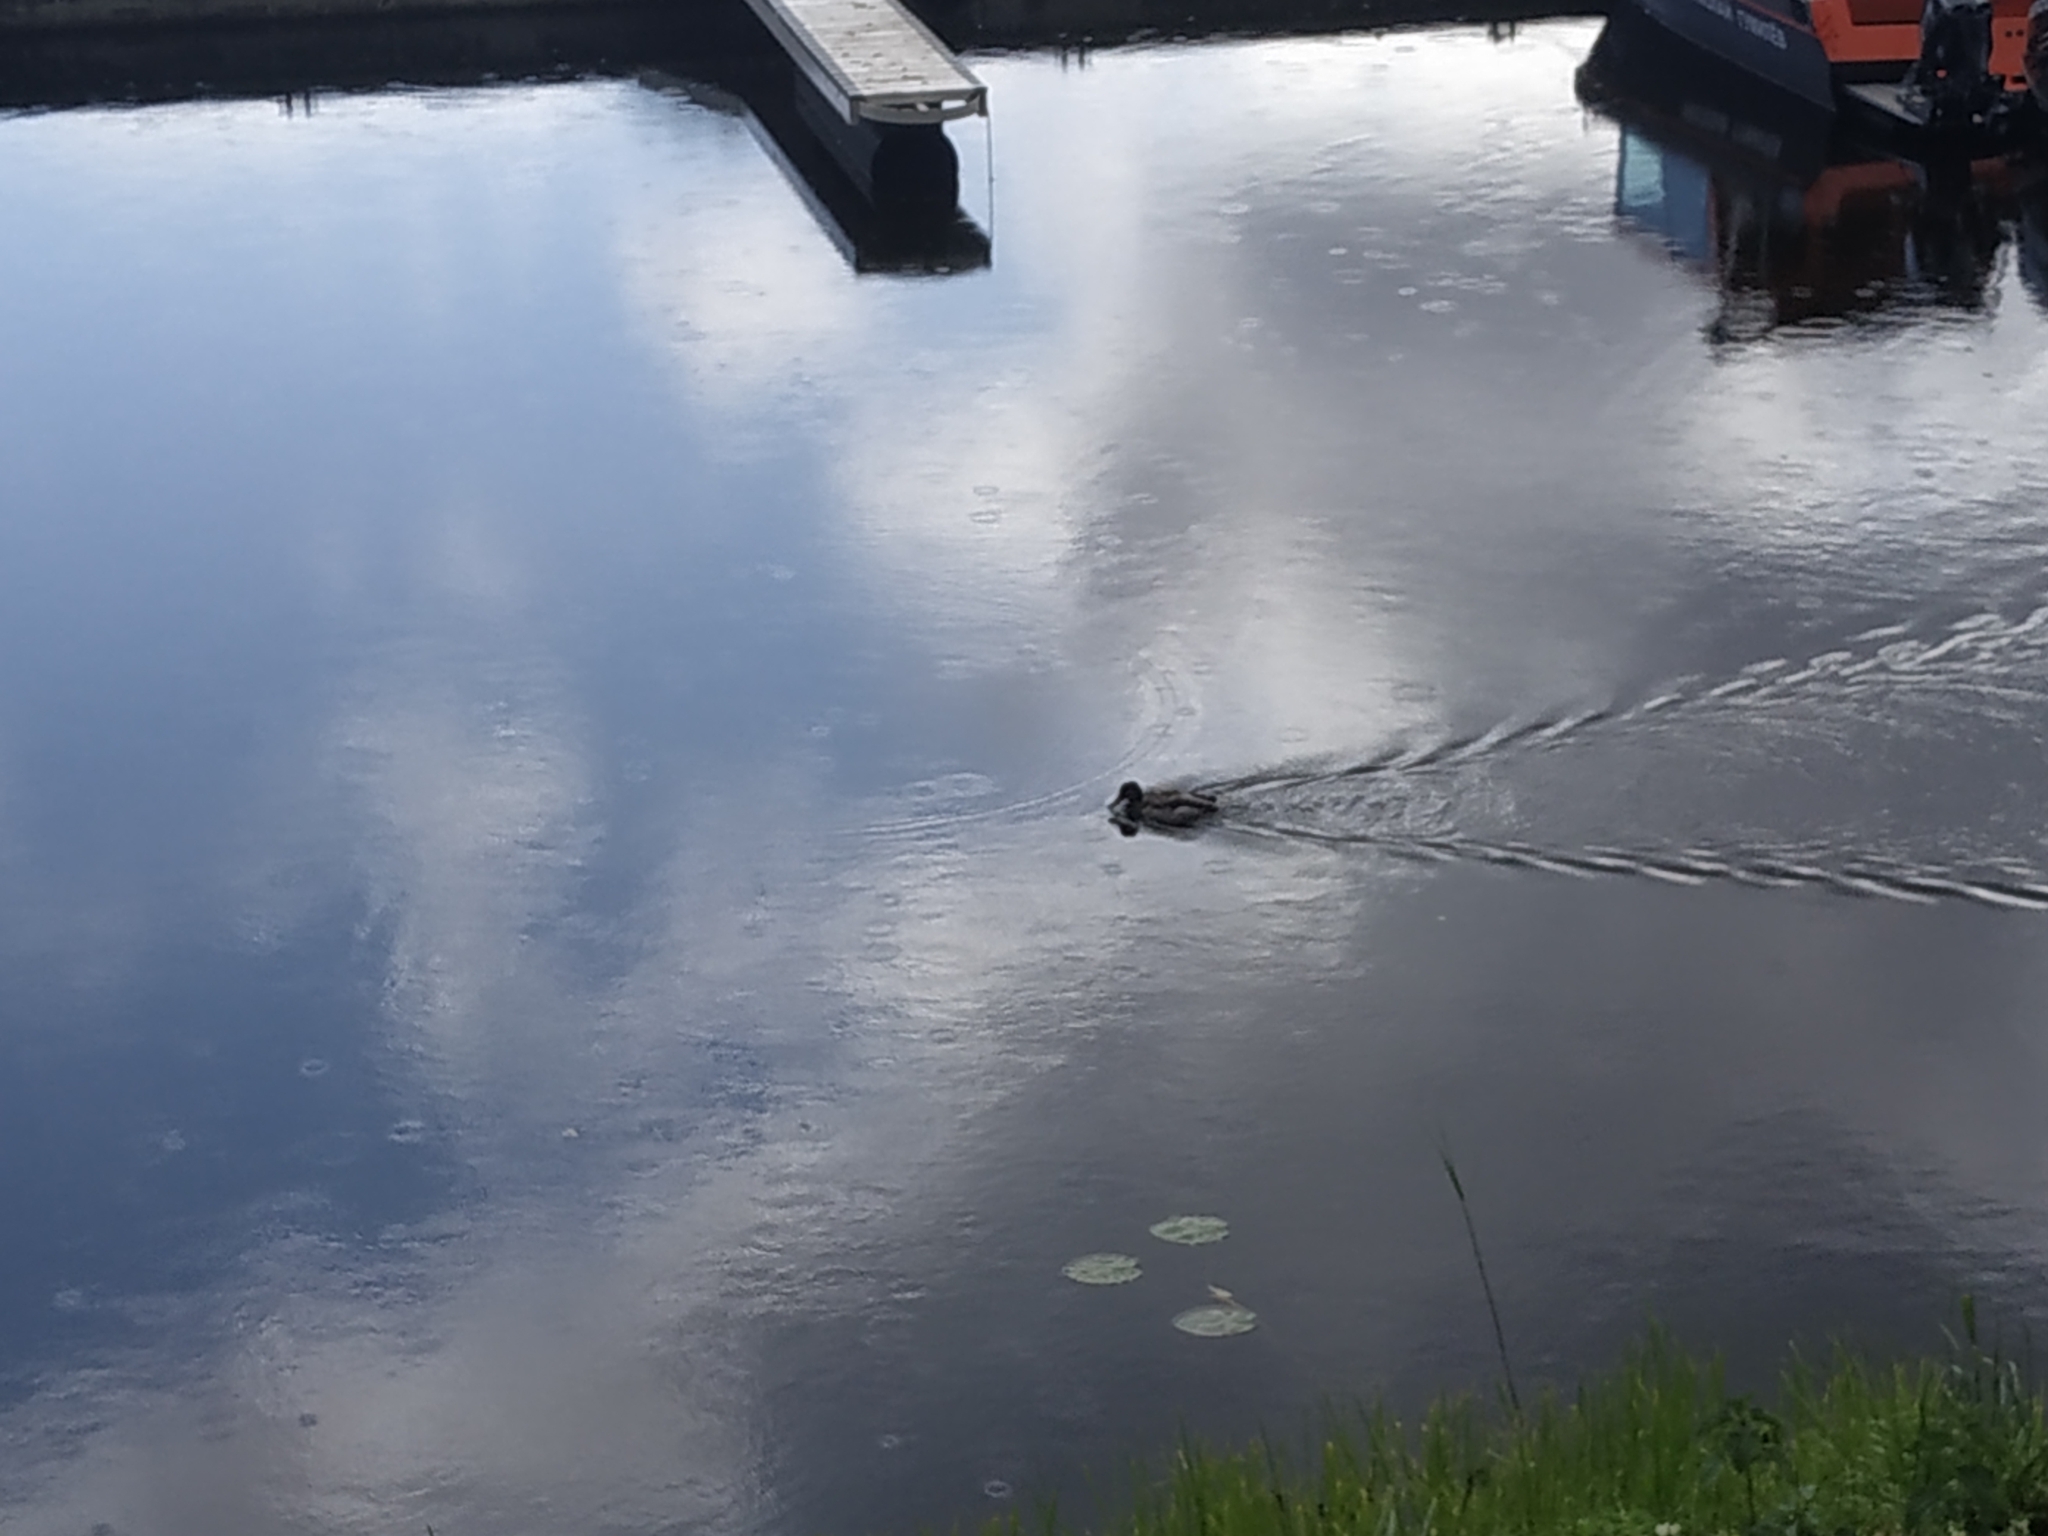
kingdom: Animalia
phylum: Chordata
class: Aves
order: Anseriformes
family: Anatidae
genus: Anas
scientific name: Anas platyrhynchos
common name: Mallard
